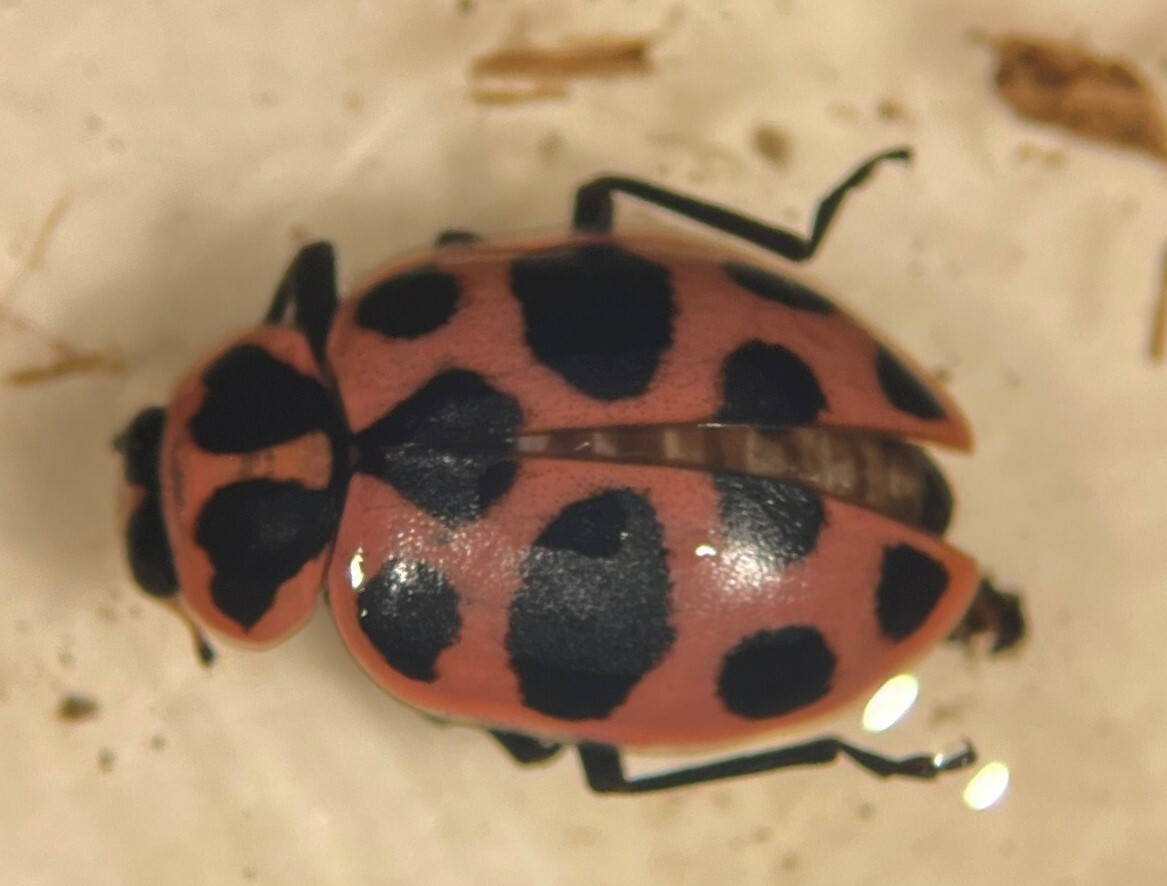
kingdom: Animalia
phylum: Arthropoda
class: Insecta
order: Coleoptera
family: Coccinellidae
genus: Coleomegilla
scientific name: Coleomegilla maculata
